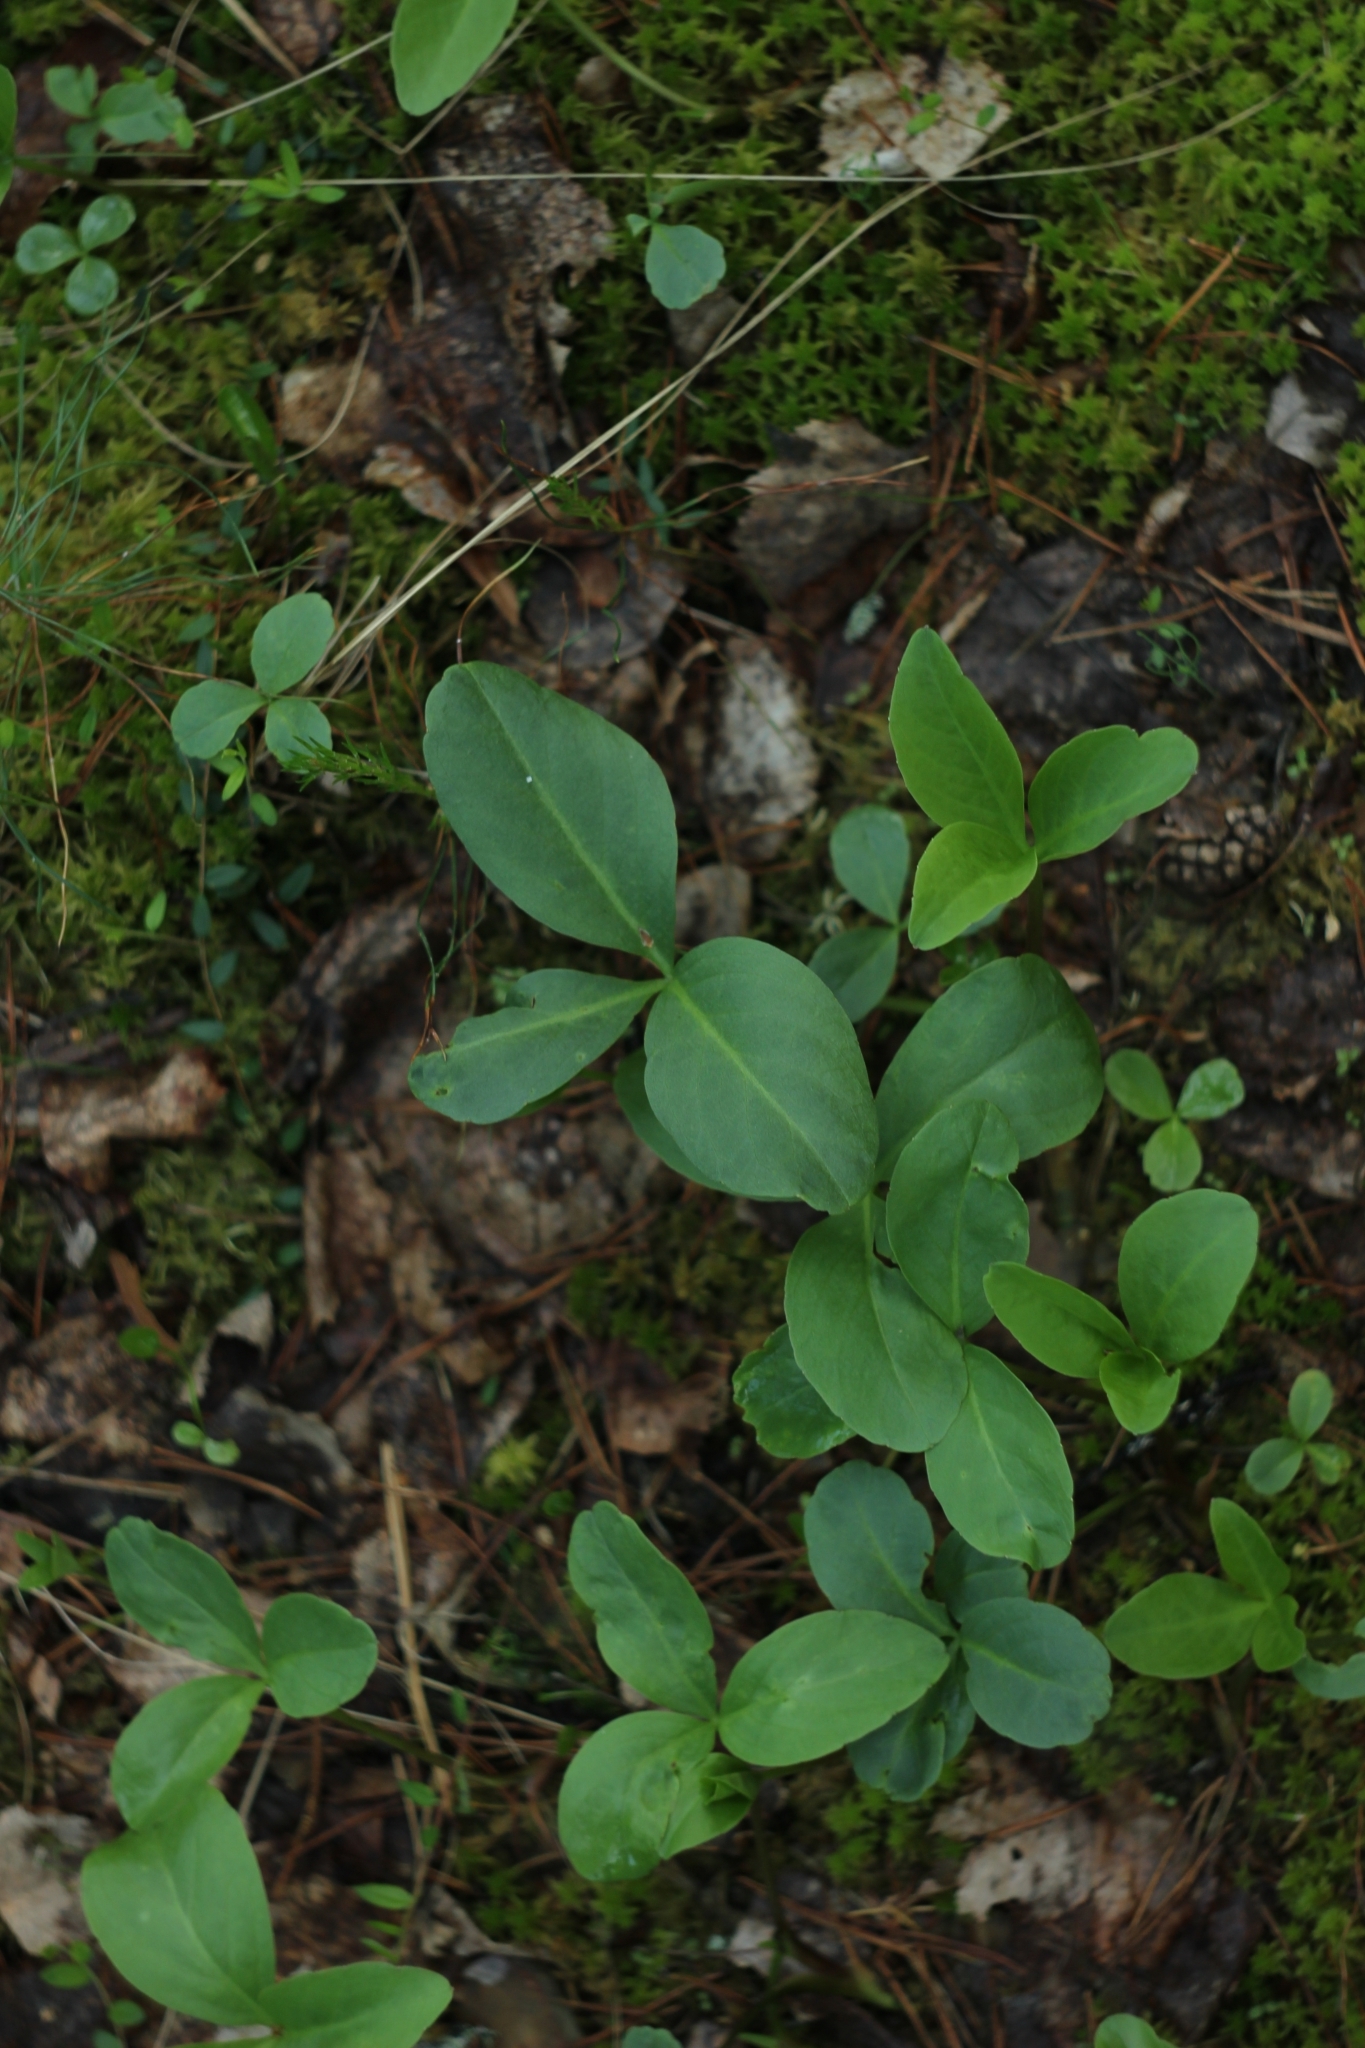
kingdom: Plantae
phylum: Tracheophyta
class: Magnoliopsida
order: Asterales
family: Menyanthaceae
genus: Menyanthes
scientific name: Menyanthes trifoliata
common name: Bogbean
